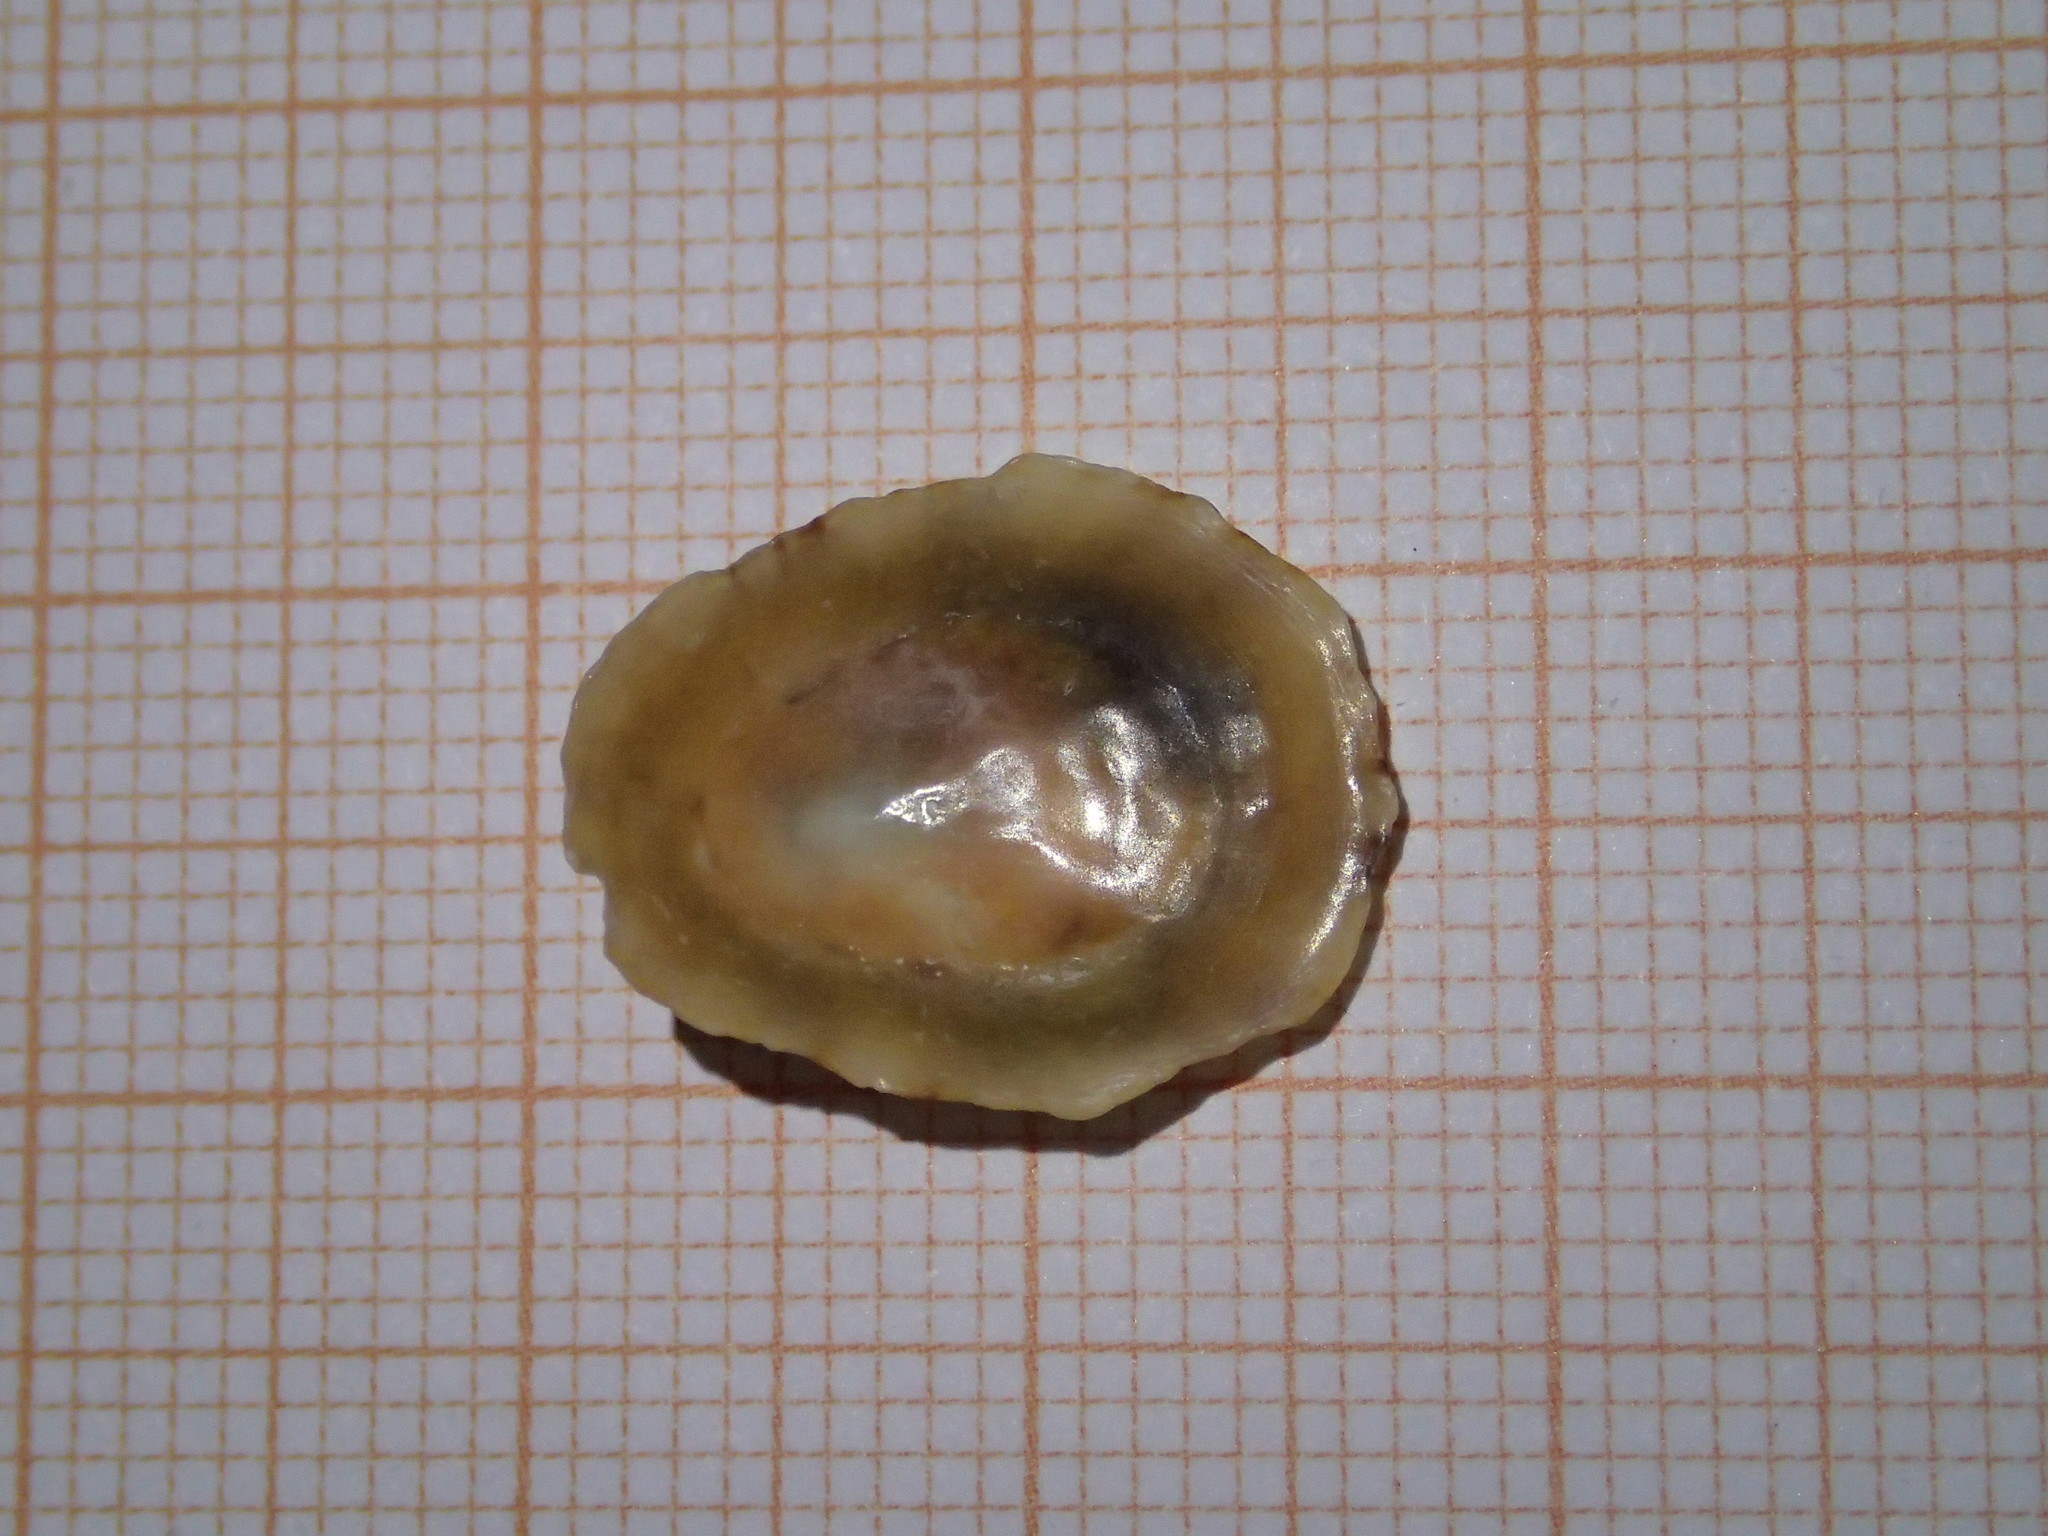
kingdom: Animalia
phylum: Mollusca
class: Gastropoda
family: Patellidae
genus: Patella
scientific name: Patella caerulea
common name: Mediterranean limpet
